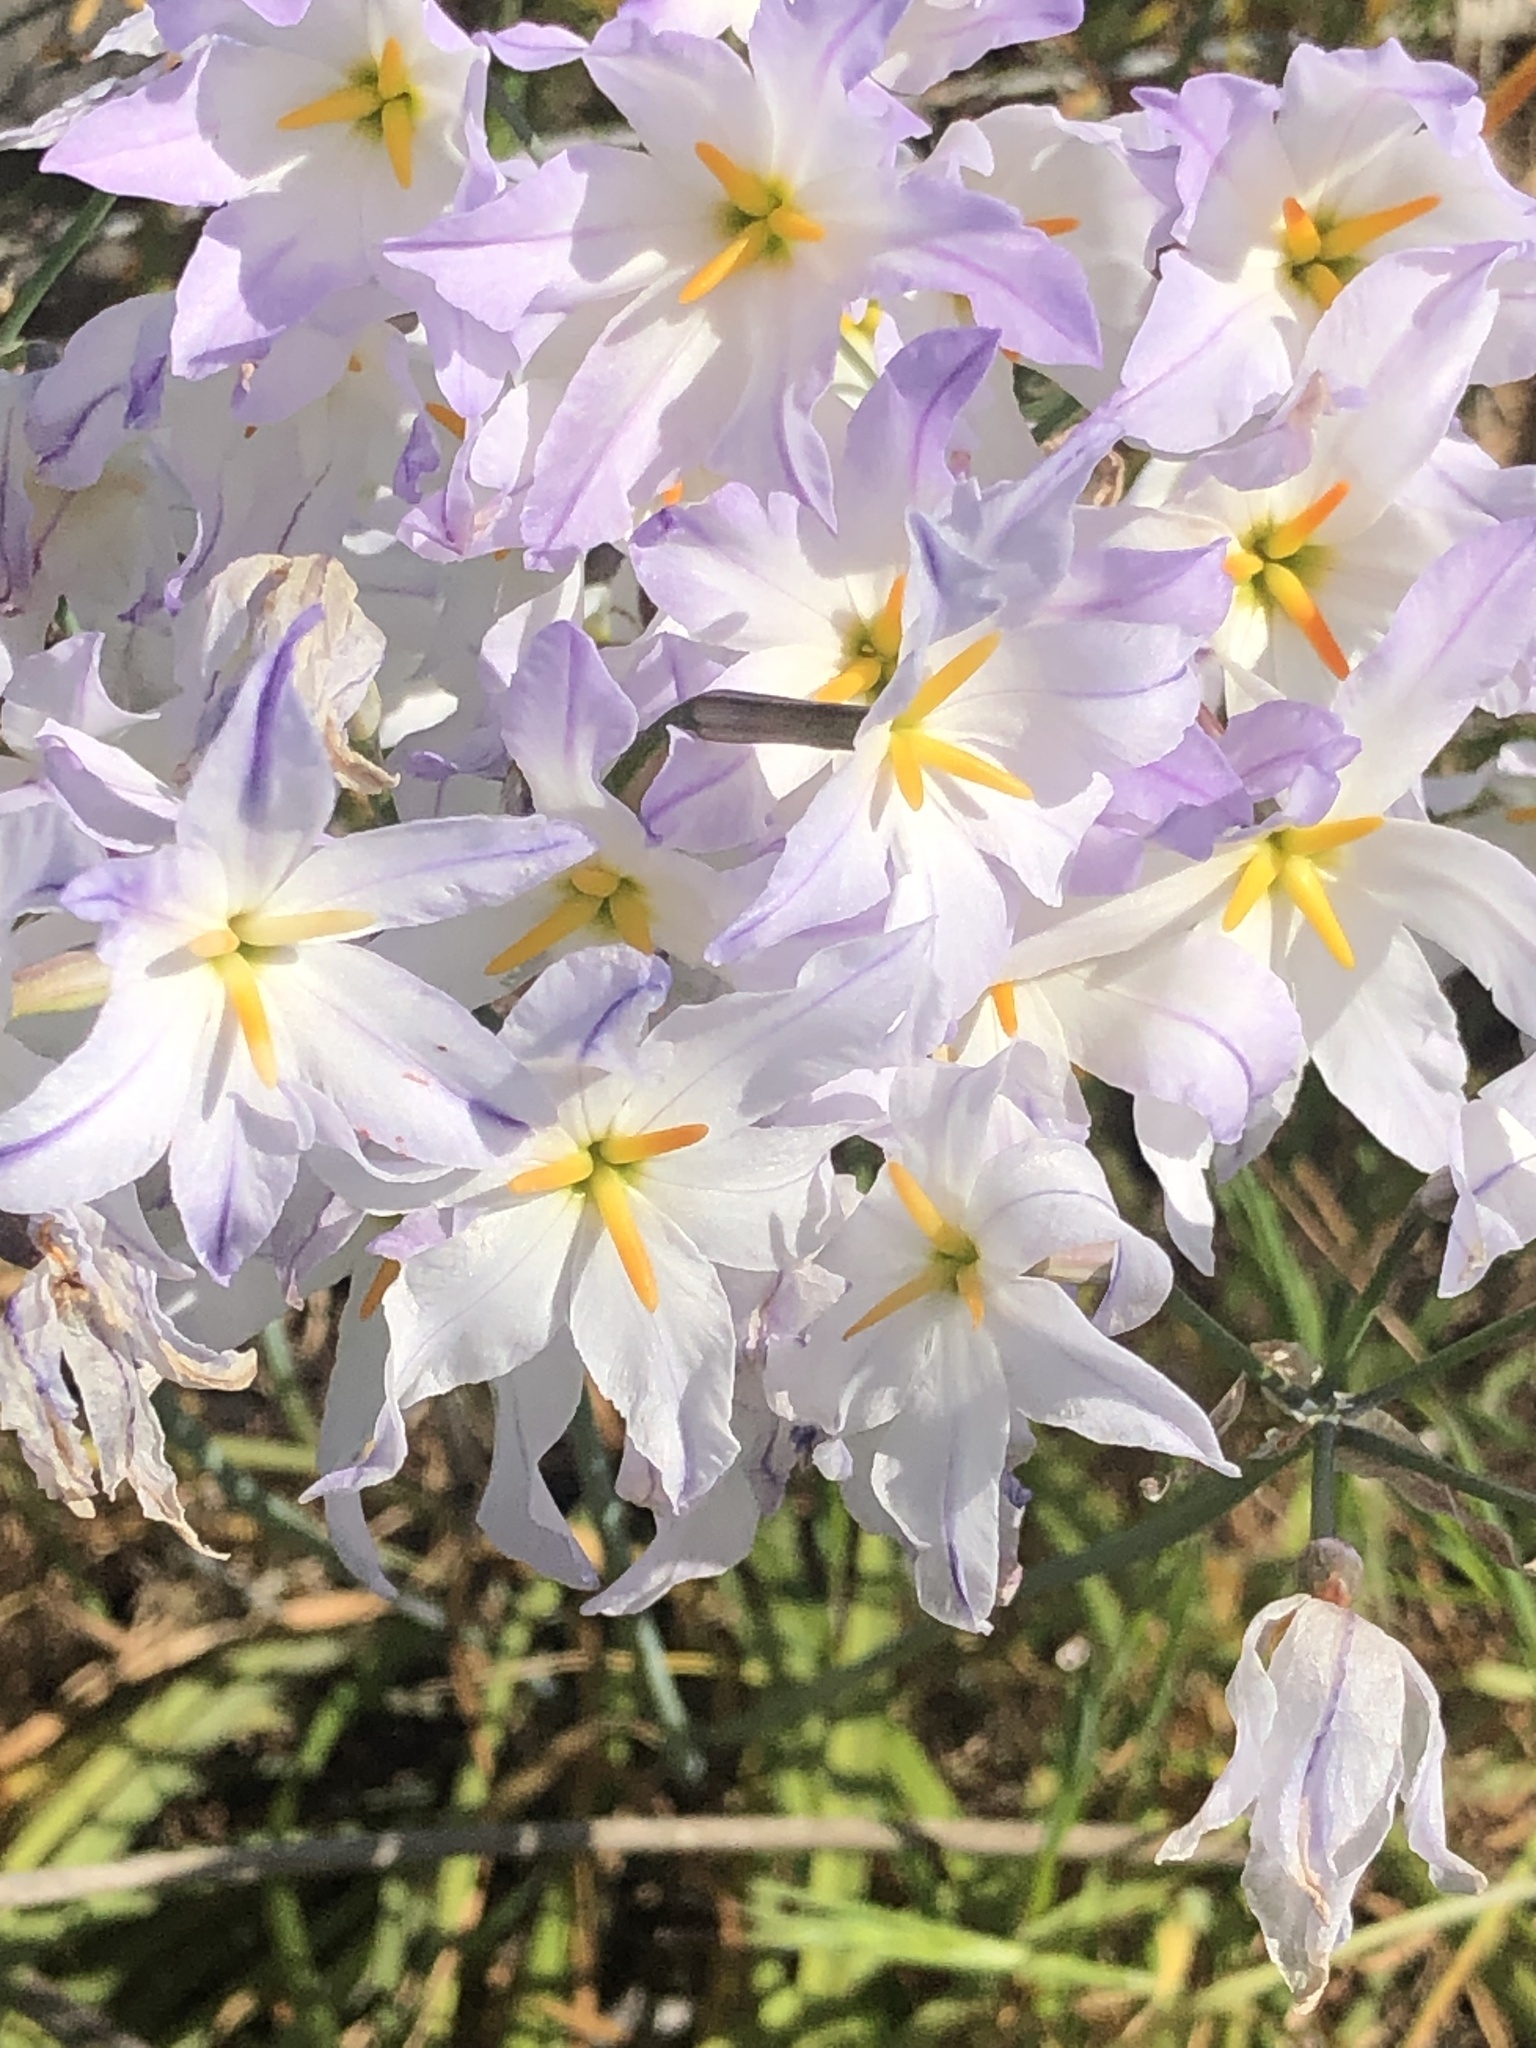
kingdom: Plantae
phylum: Tracheophyta
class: Liliopsida
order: Asparagales
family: Amaryllidaceae
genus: Leucocoryne
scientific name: Leucocoryne ixioides
